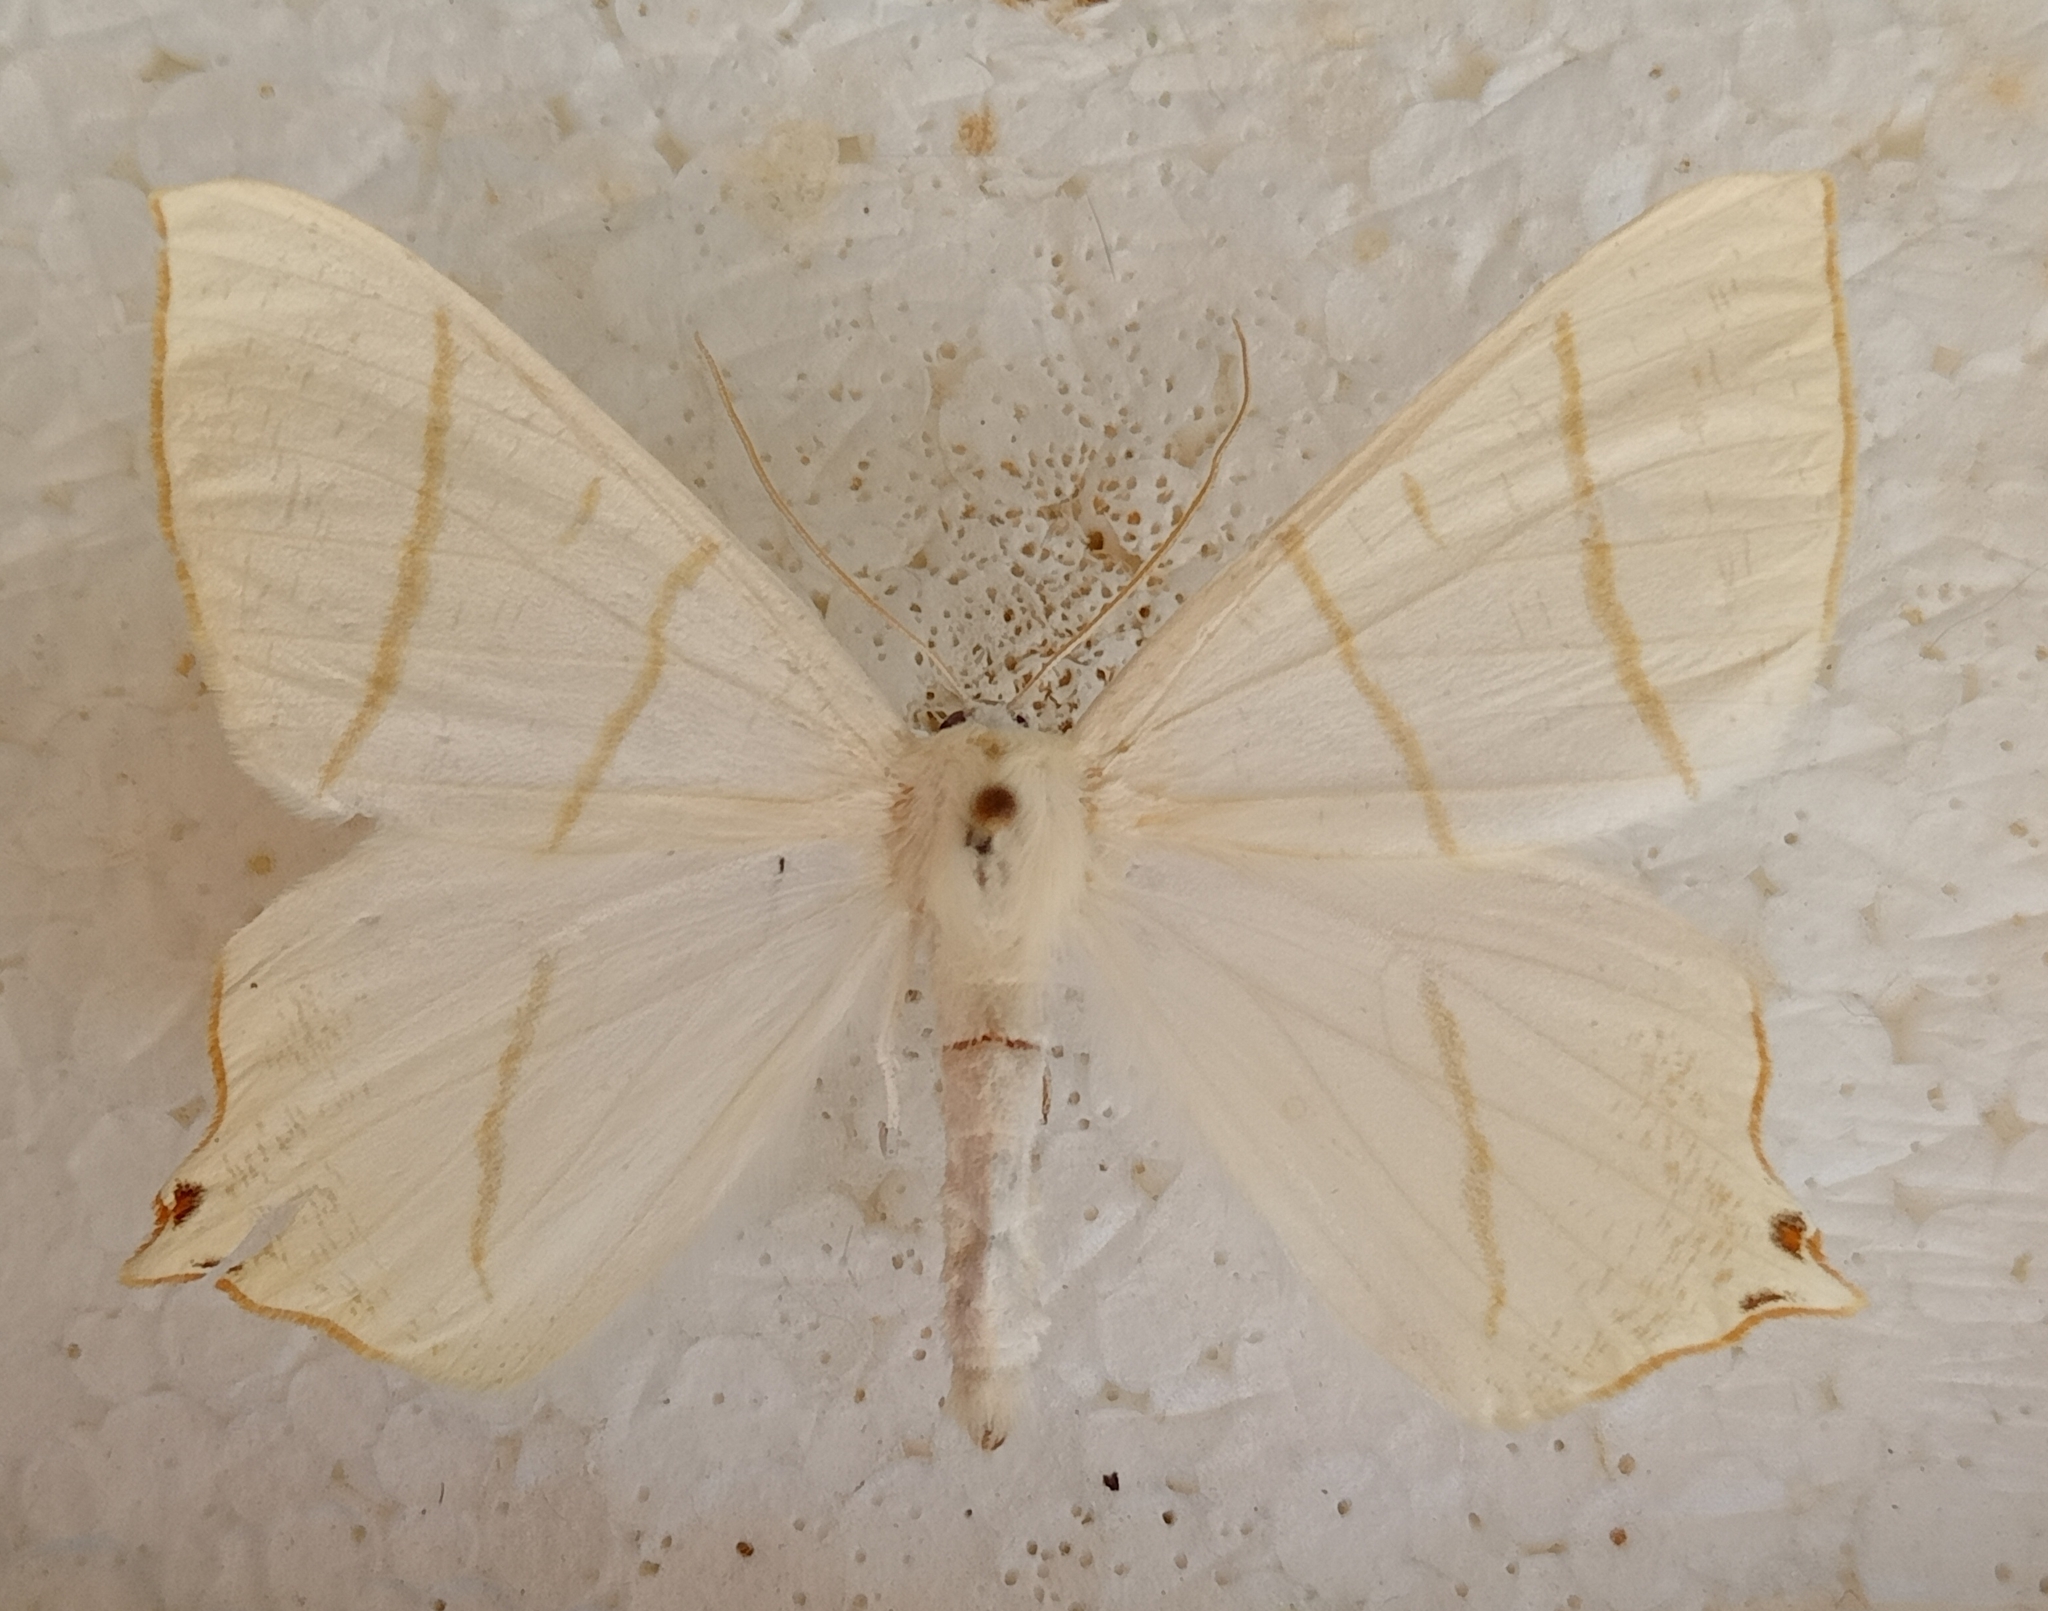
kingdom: Animalia
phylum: Arthropoda
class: Insecta
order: Lepidoptera
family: Geometridae
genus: Ourapteryx
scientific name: Ourapteryx sambucaria
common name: Swallow-tailed moth
